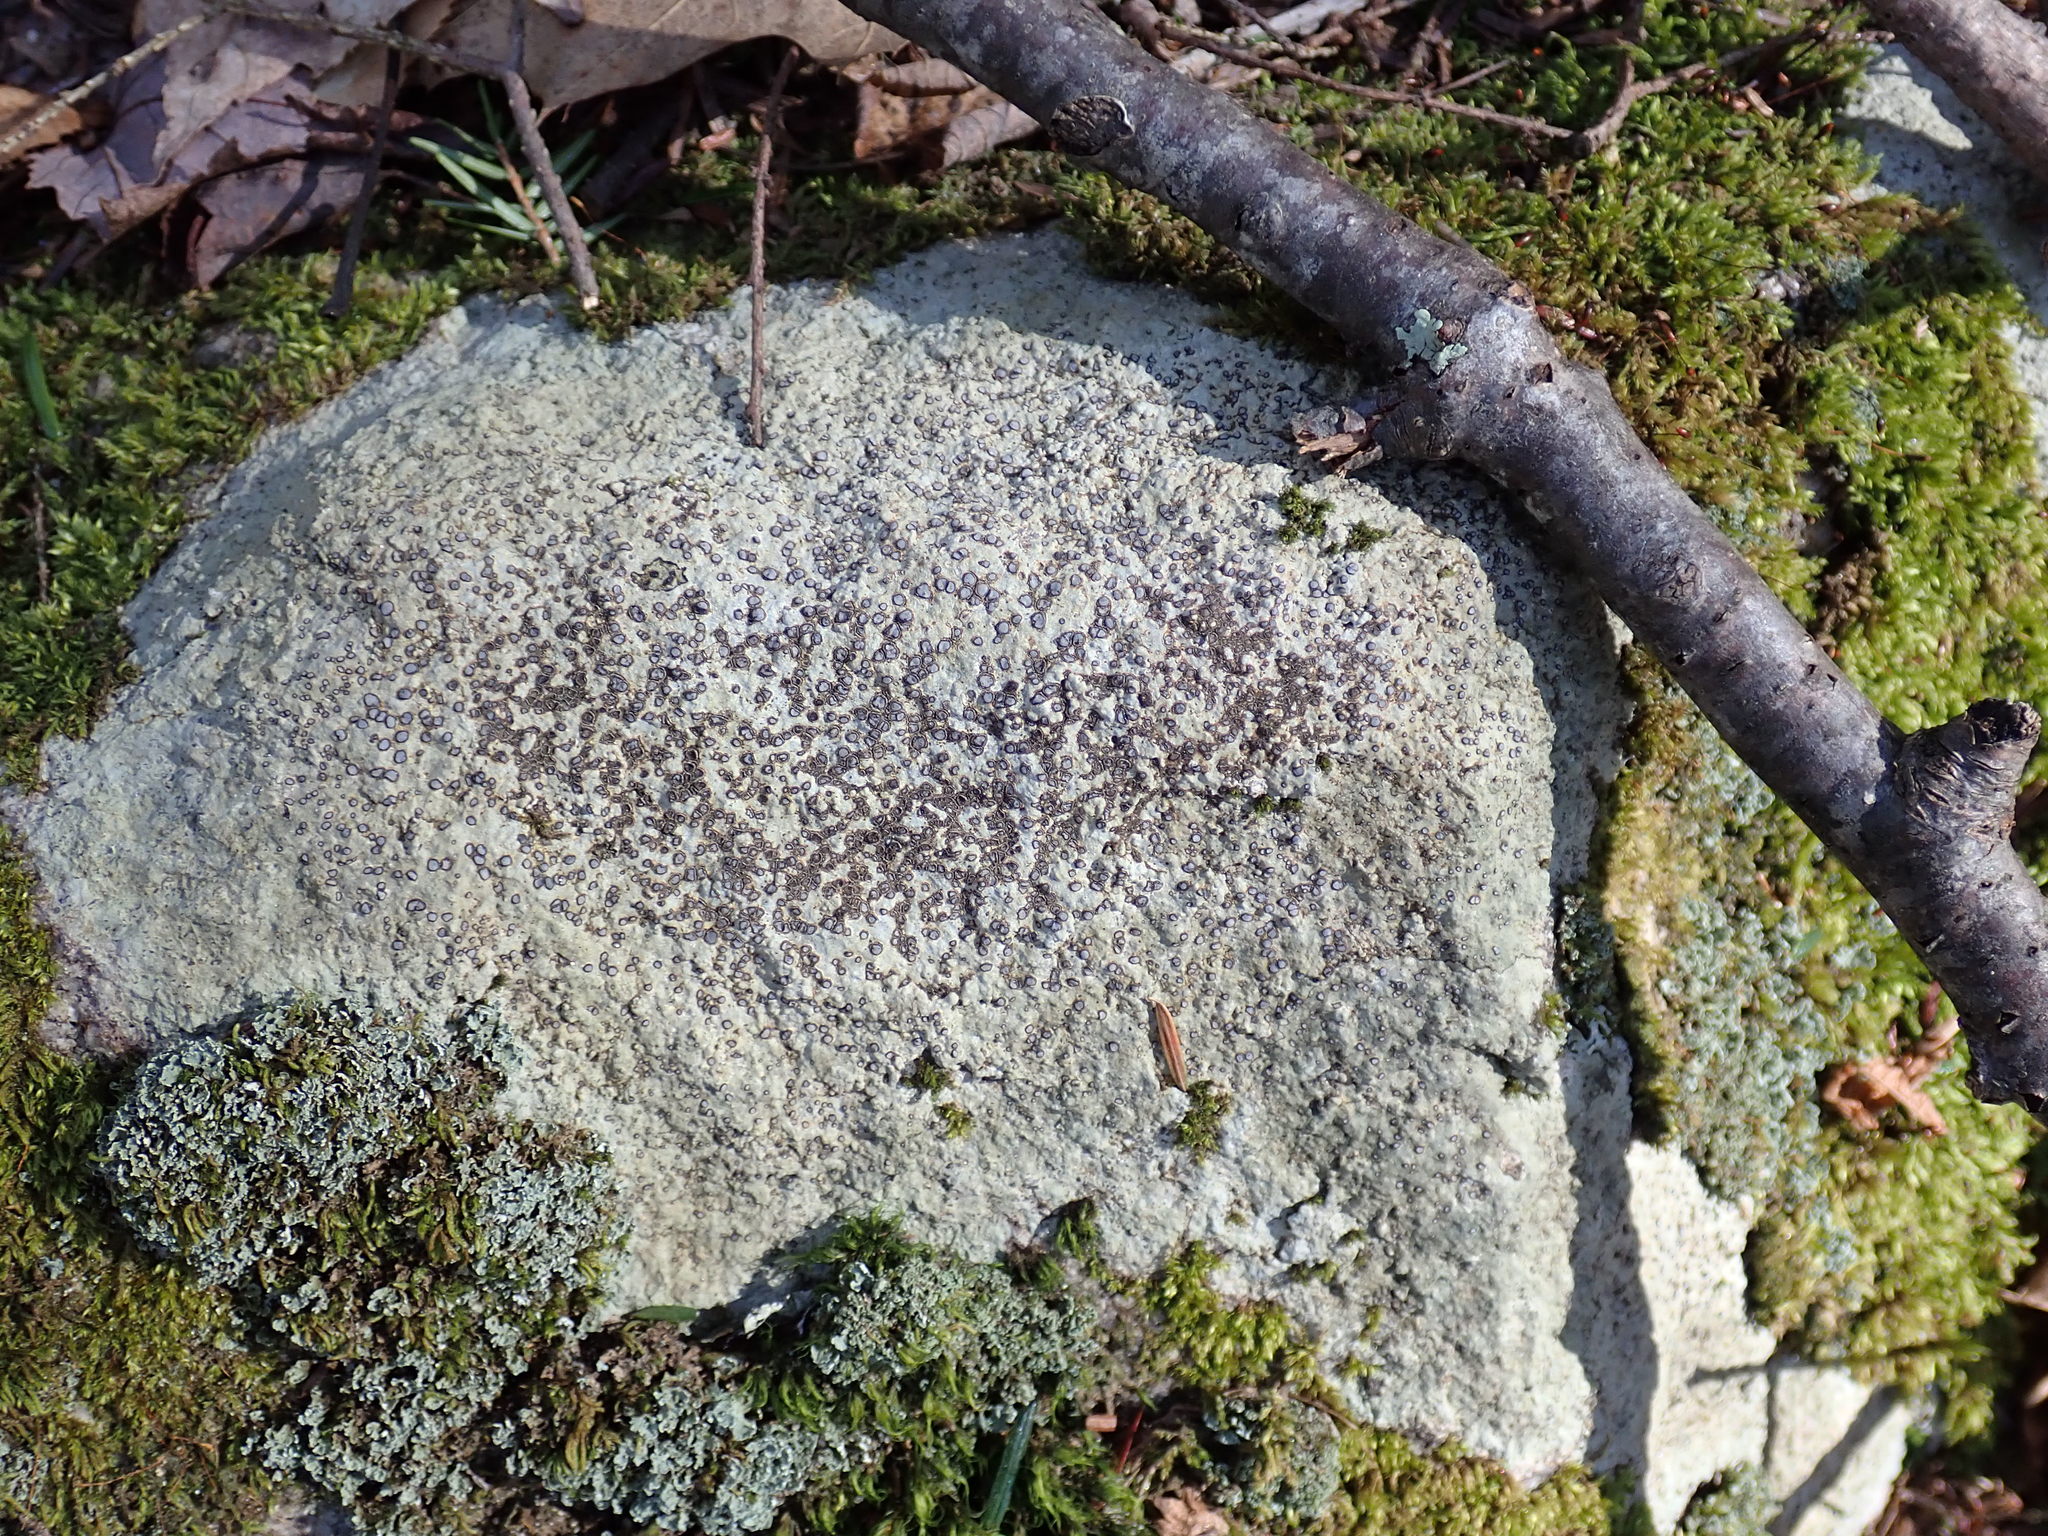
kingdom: Fungi
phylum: Ascomycota
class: Lecanoromycetes
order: Lecideales
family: Lecideaceae
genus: Porpidia
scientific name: Porpidia albocaerulescens
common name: Smokey-eyed boulder lichen
